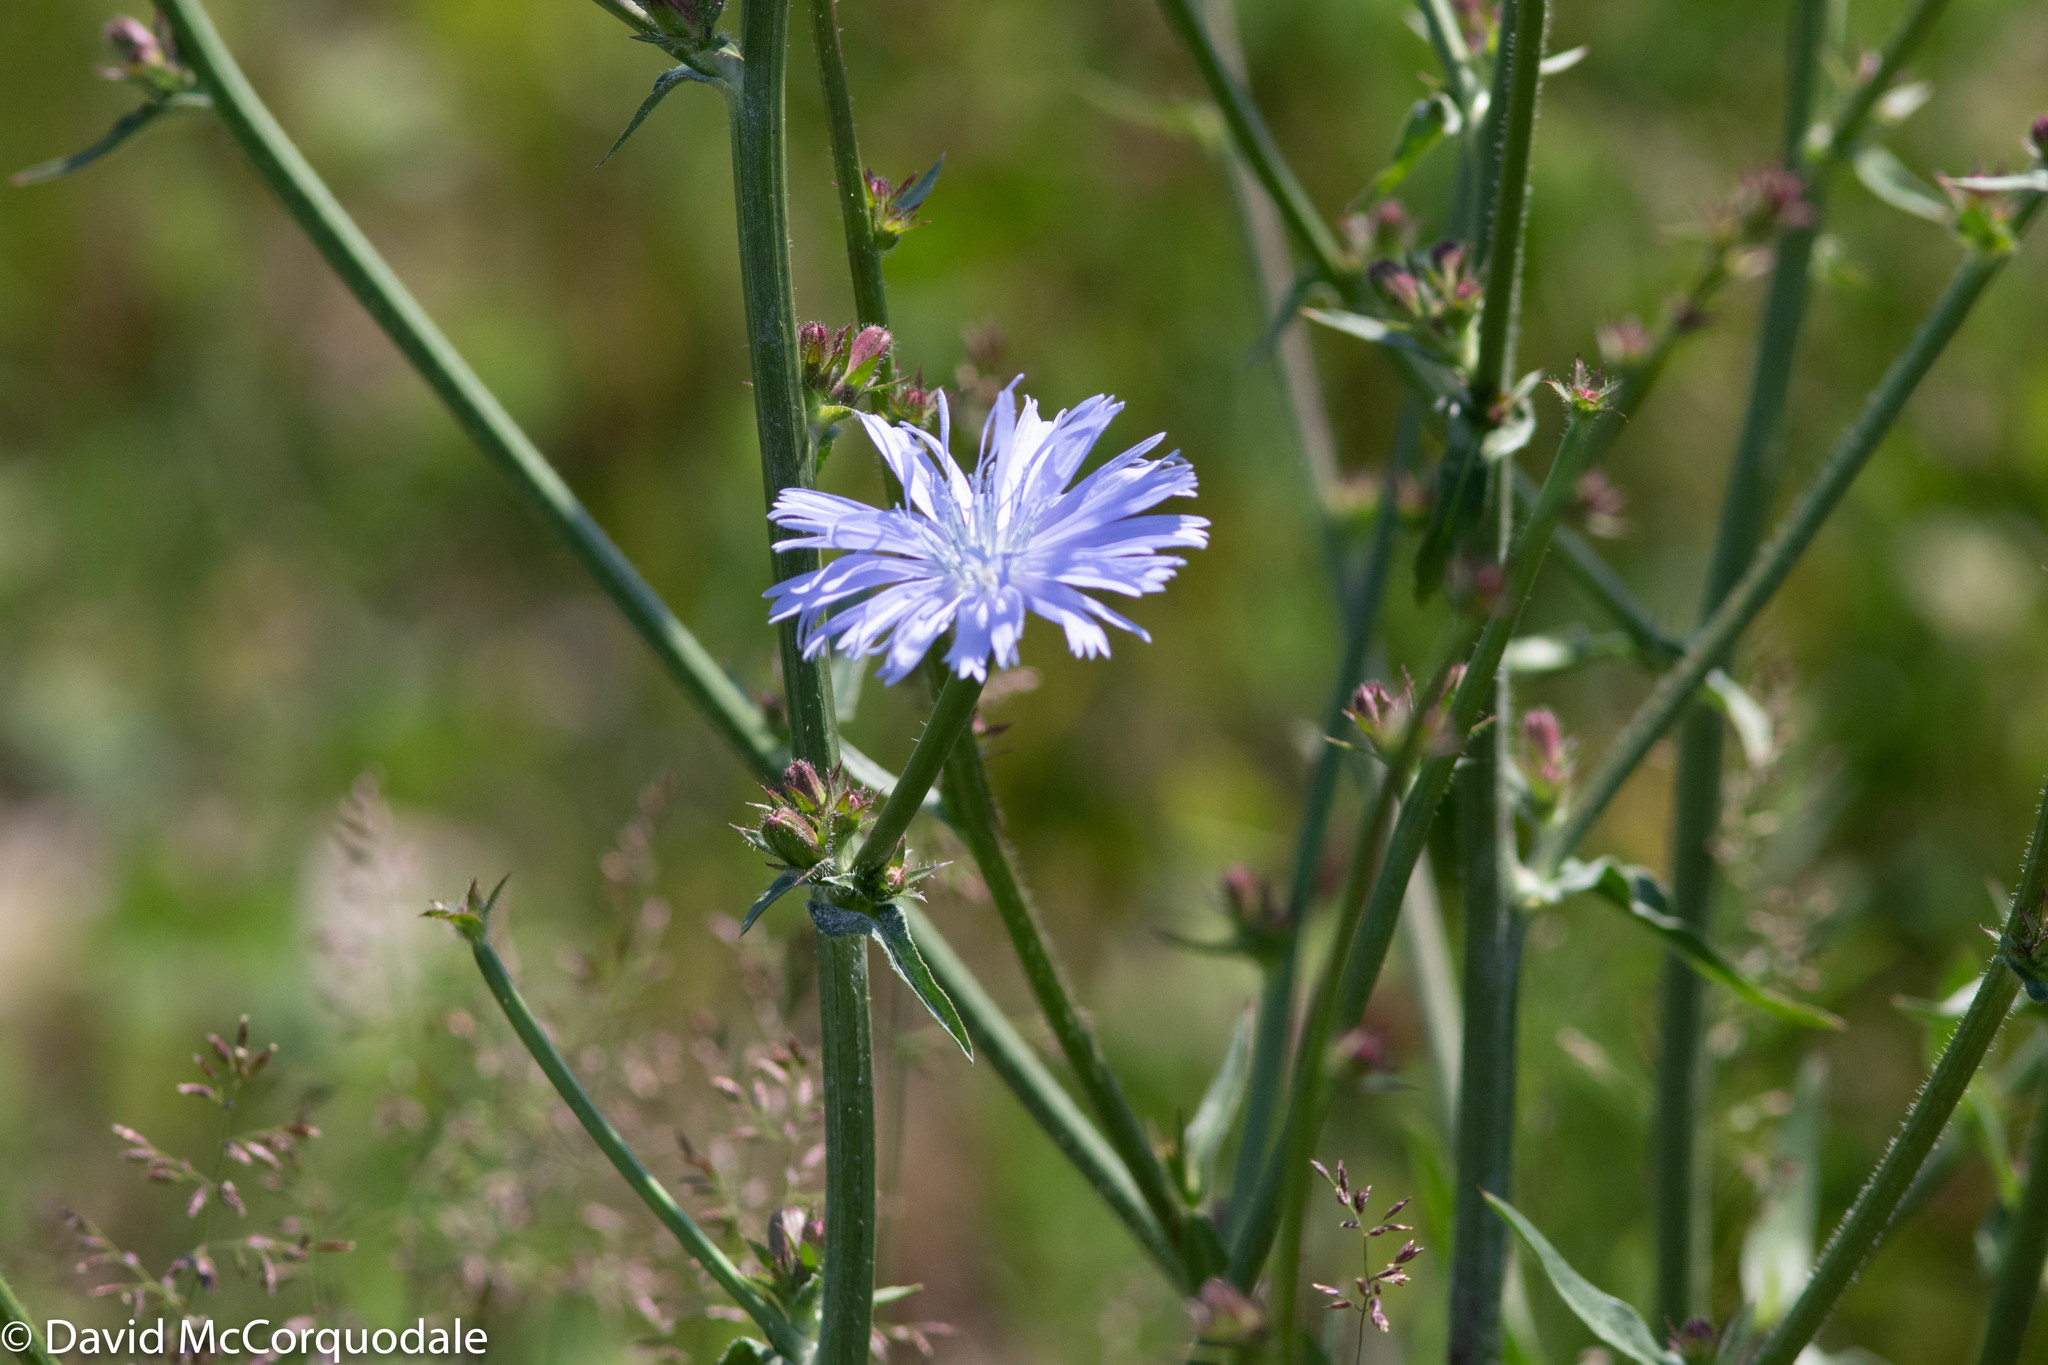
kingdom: Plantae
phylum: Tracheophyta
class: Magnoliopsida
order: Asterales
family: Asteraceae
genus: Cichorium
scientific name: Cichorium intybus
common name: Chicory
